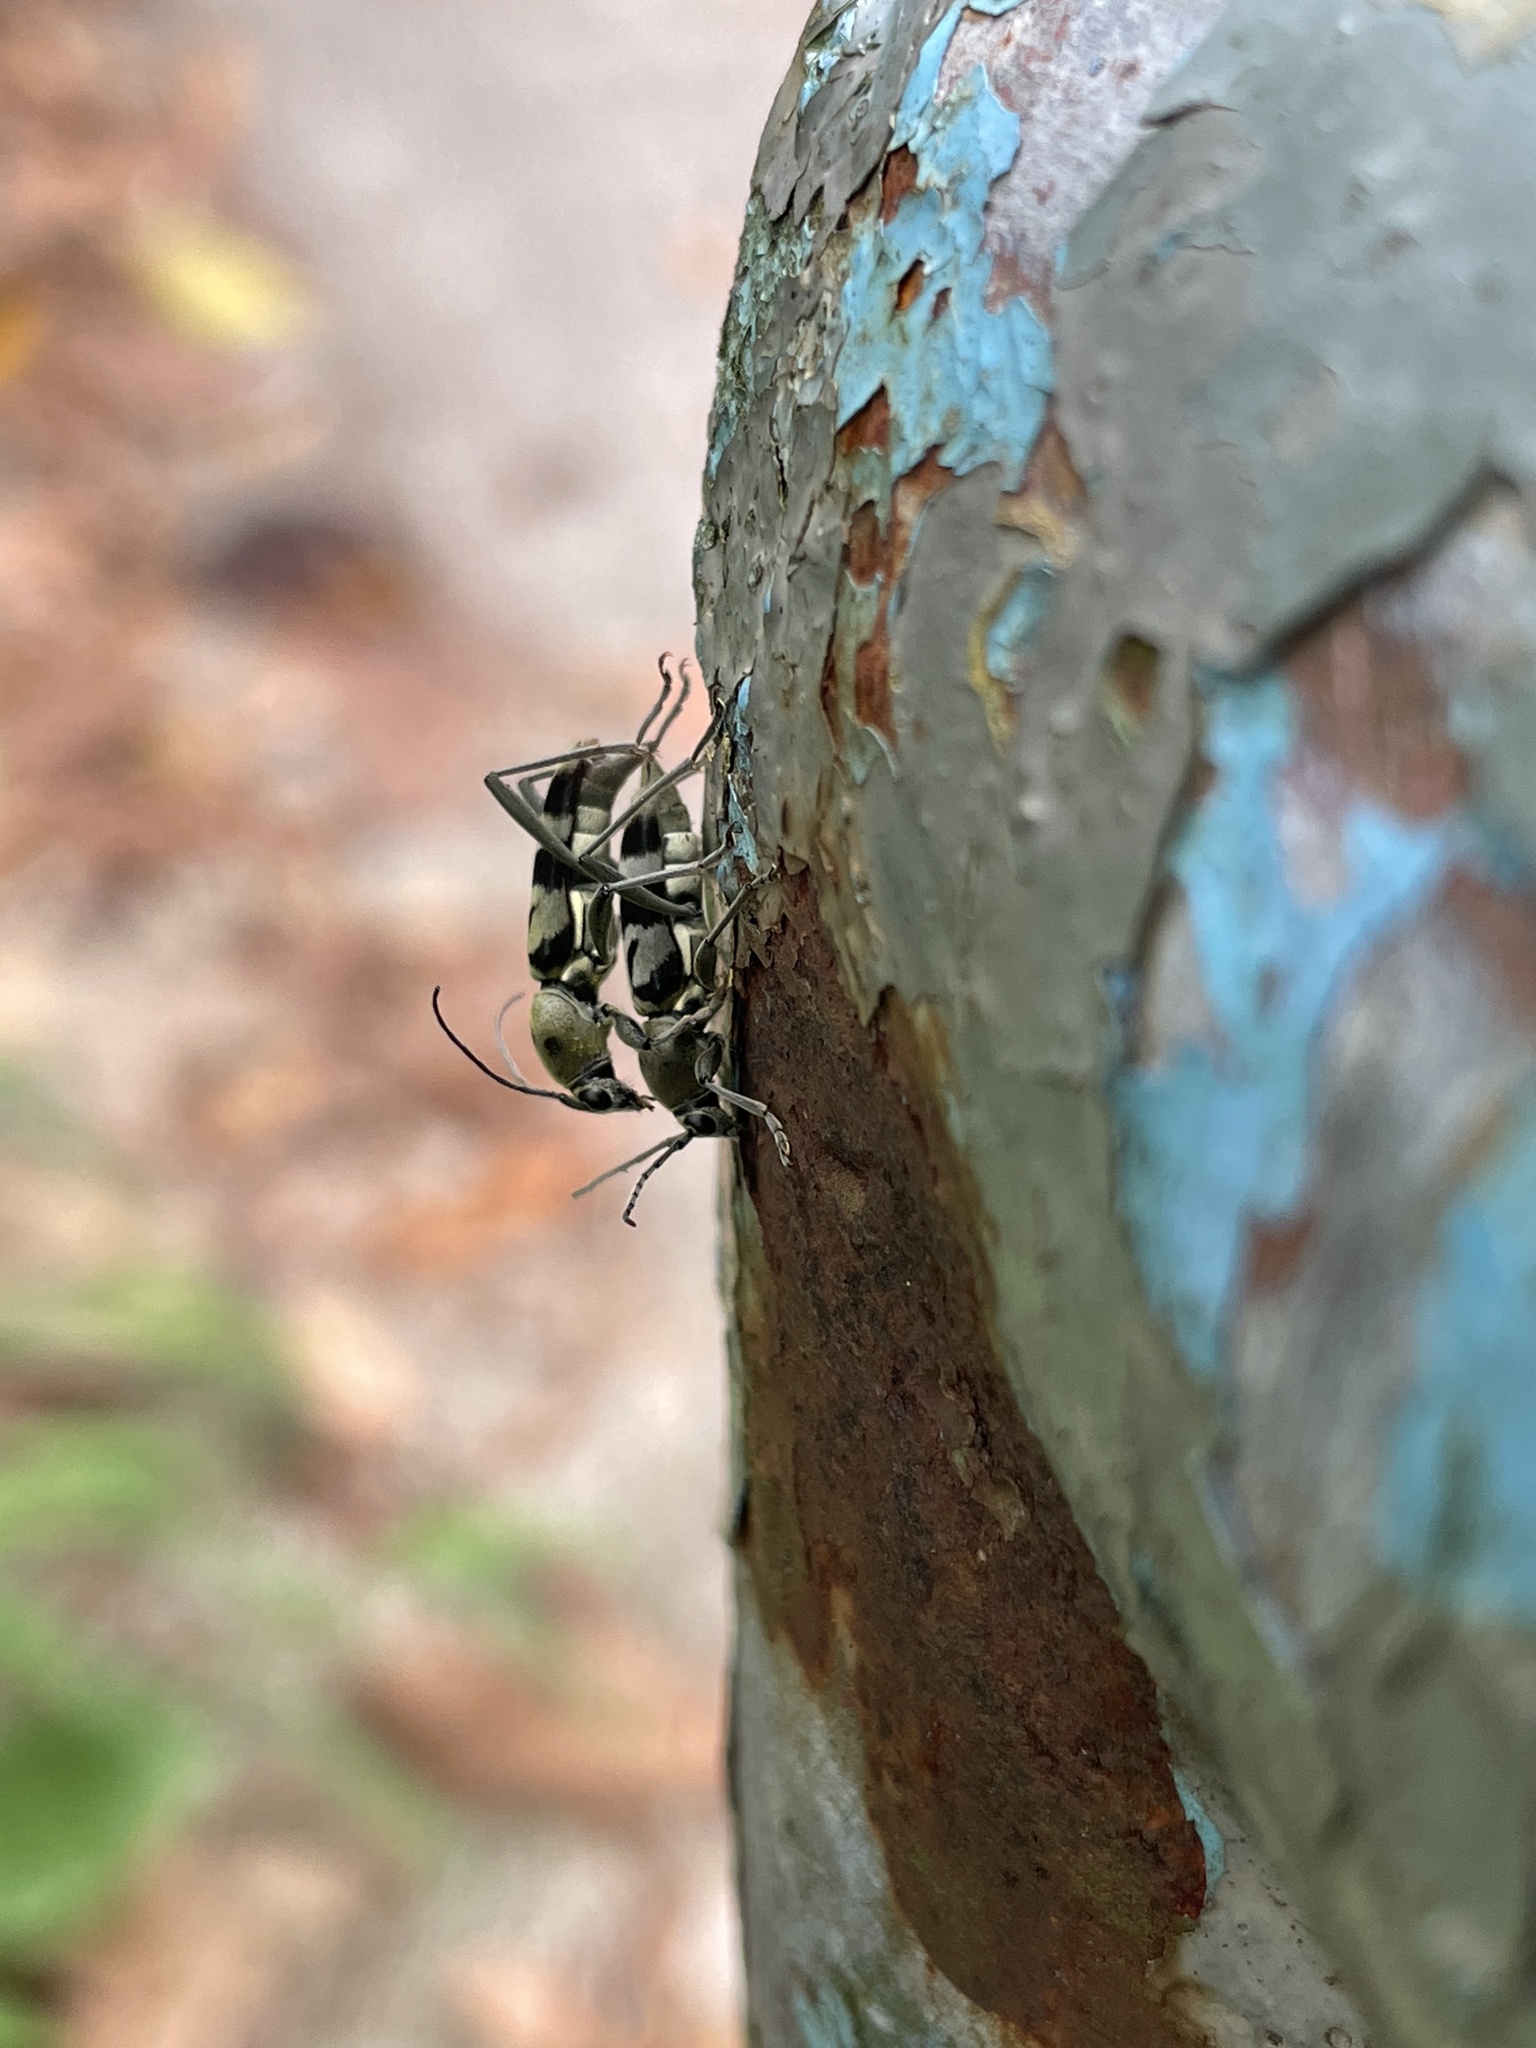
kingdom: Animalia
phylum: Arthropoda
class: Insecta
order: Coleoptera
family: Cerambycidae
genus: Chlorophorus
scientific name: Chlorophorus douei
